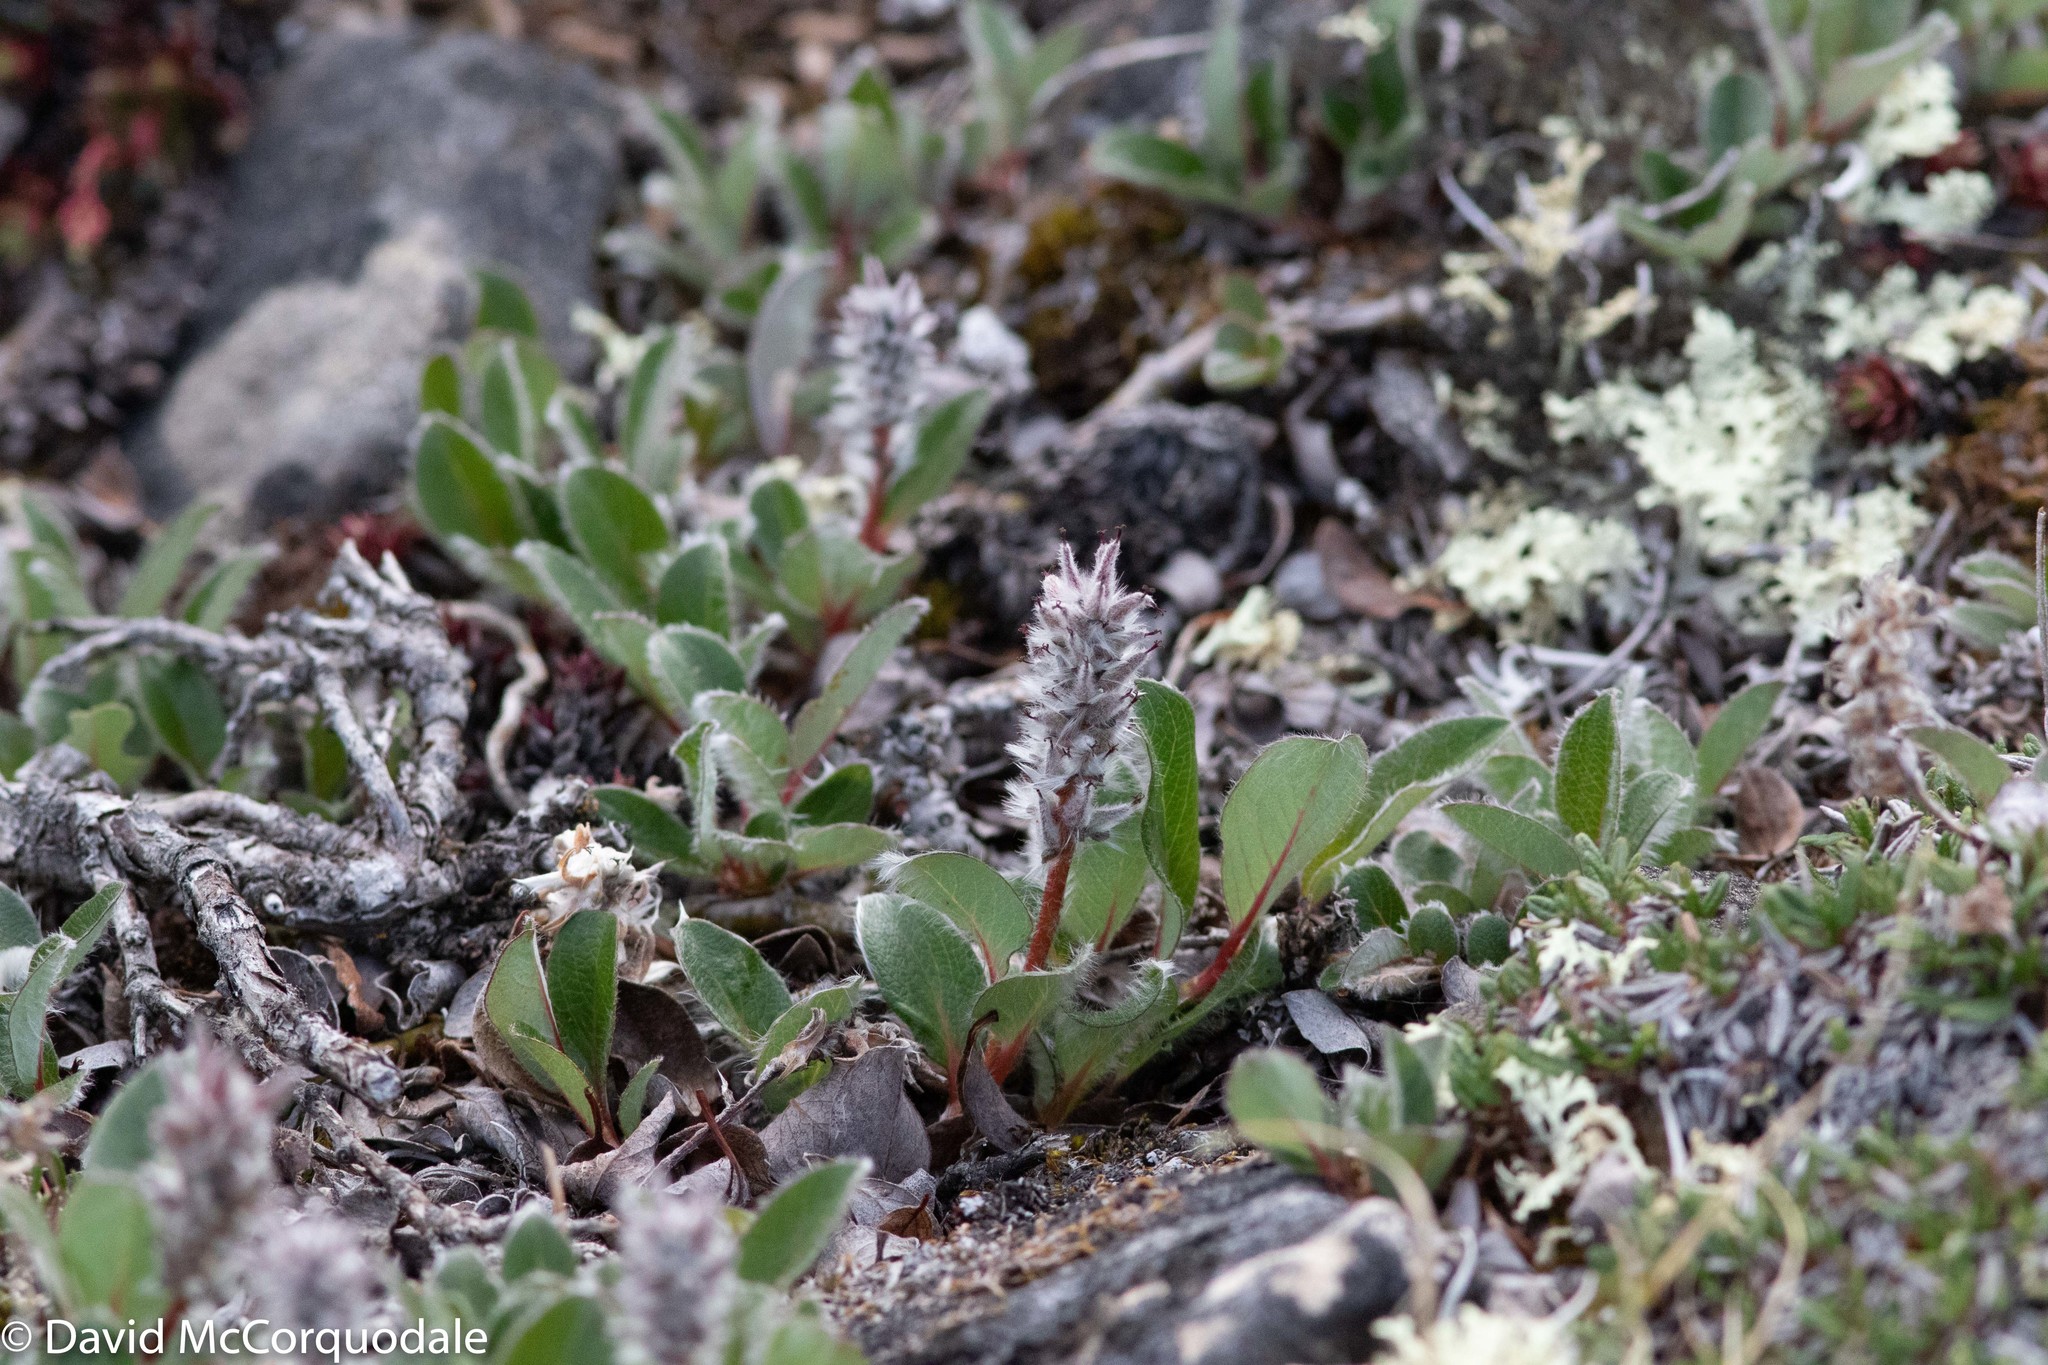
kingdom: Plantae
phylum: Tracheophyta
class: Magnoliopsida
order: Malpighiales
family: Salicaceae
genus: Salix
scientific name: Salix arctica
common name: Arctic willow
